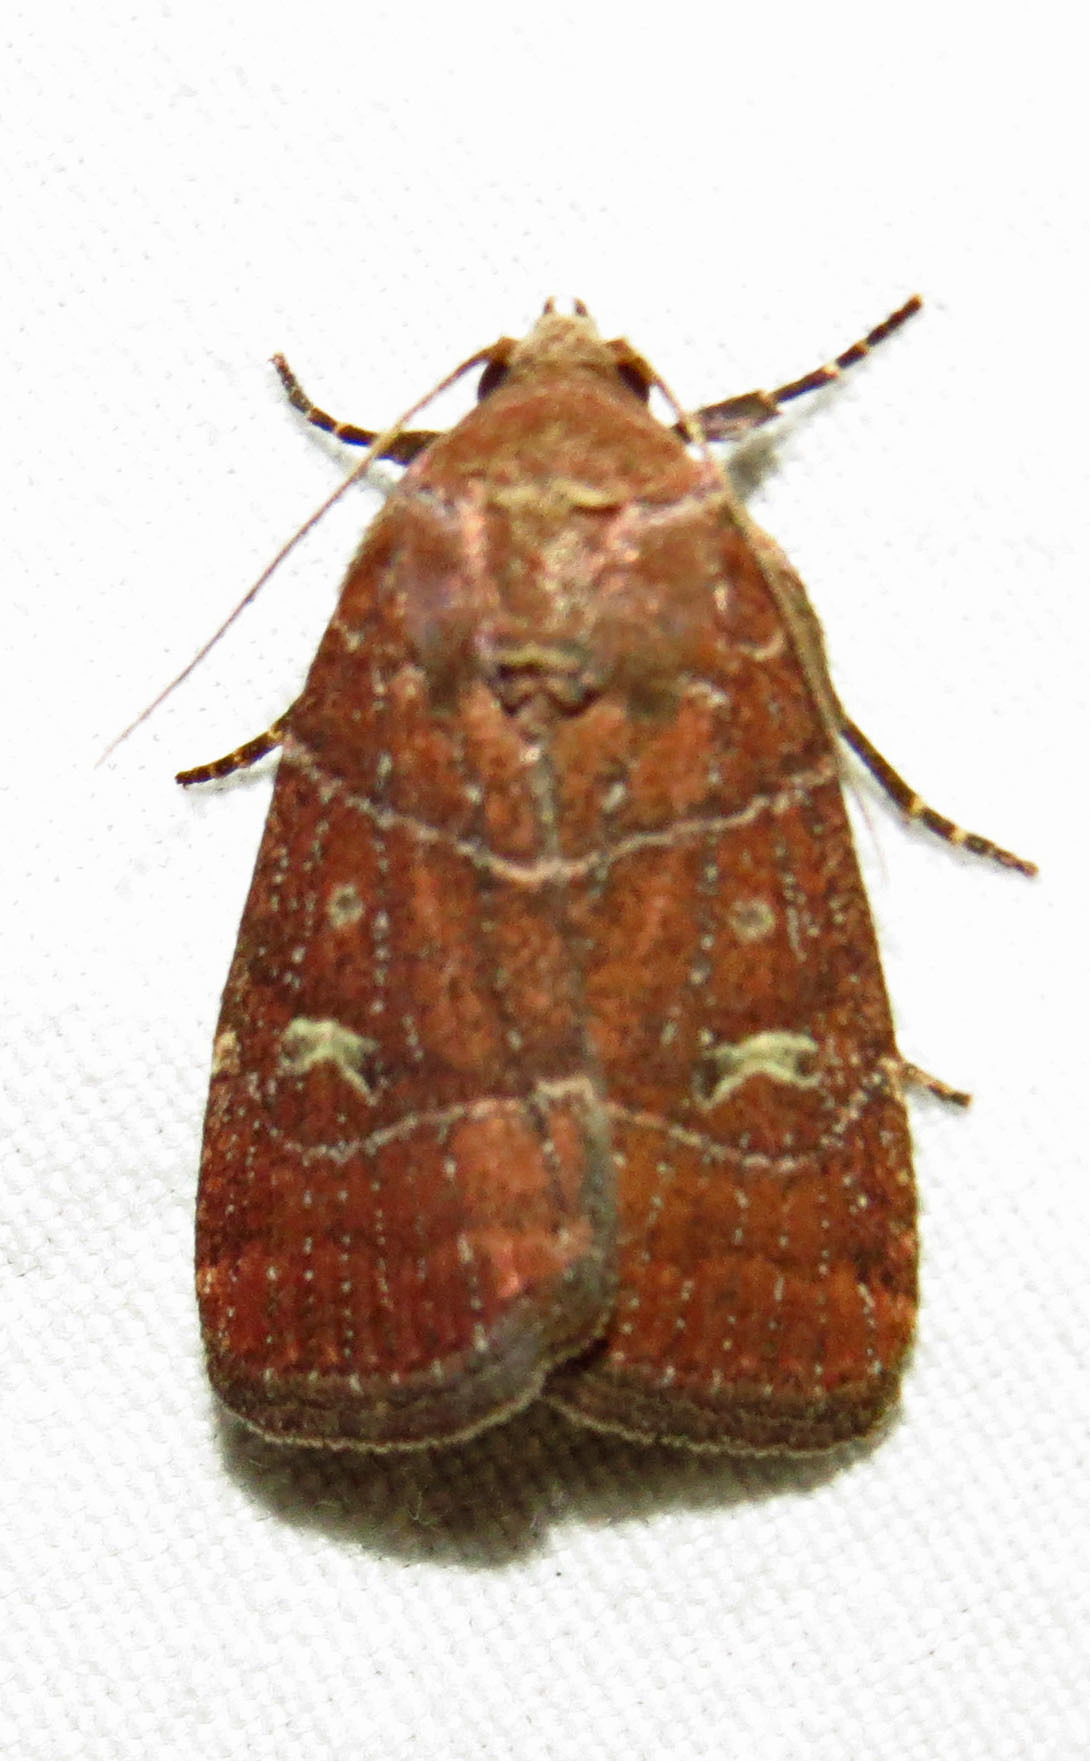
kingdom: Animalia
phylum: Arthropoda
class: Insecta
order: Lepidoptera
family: Noctuidae
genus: Elaphria
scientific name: Elaphria grata
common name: Grateful midget moth
